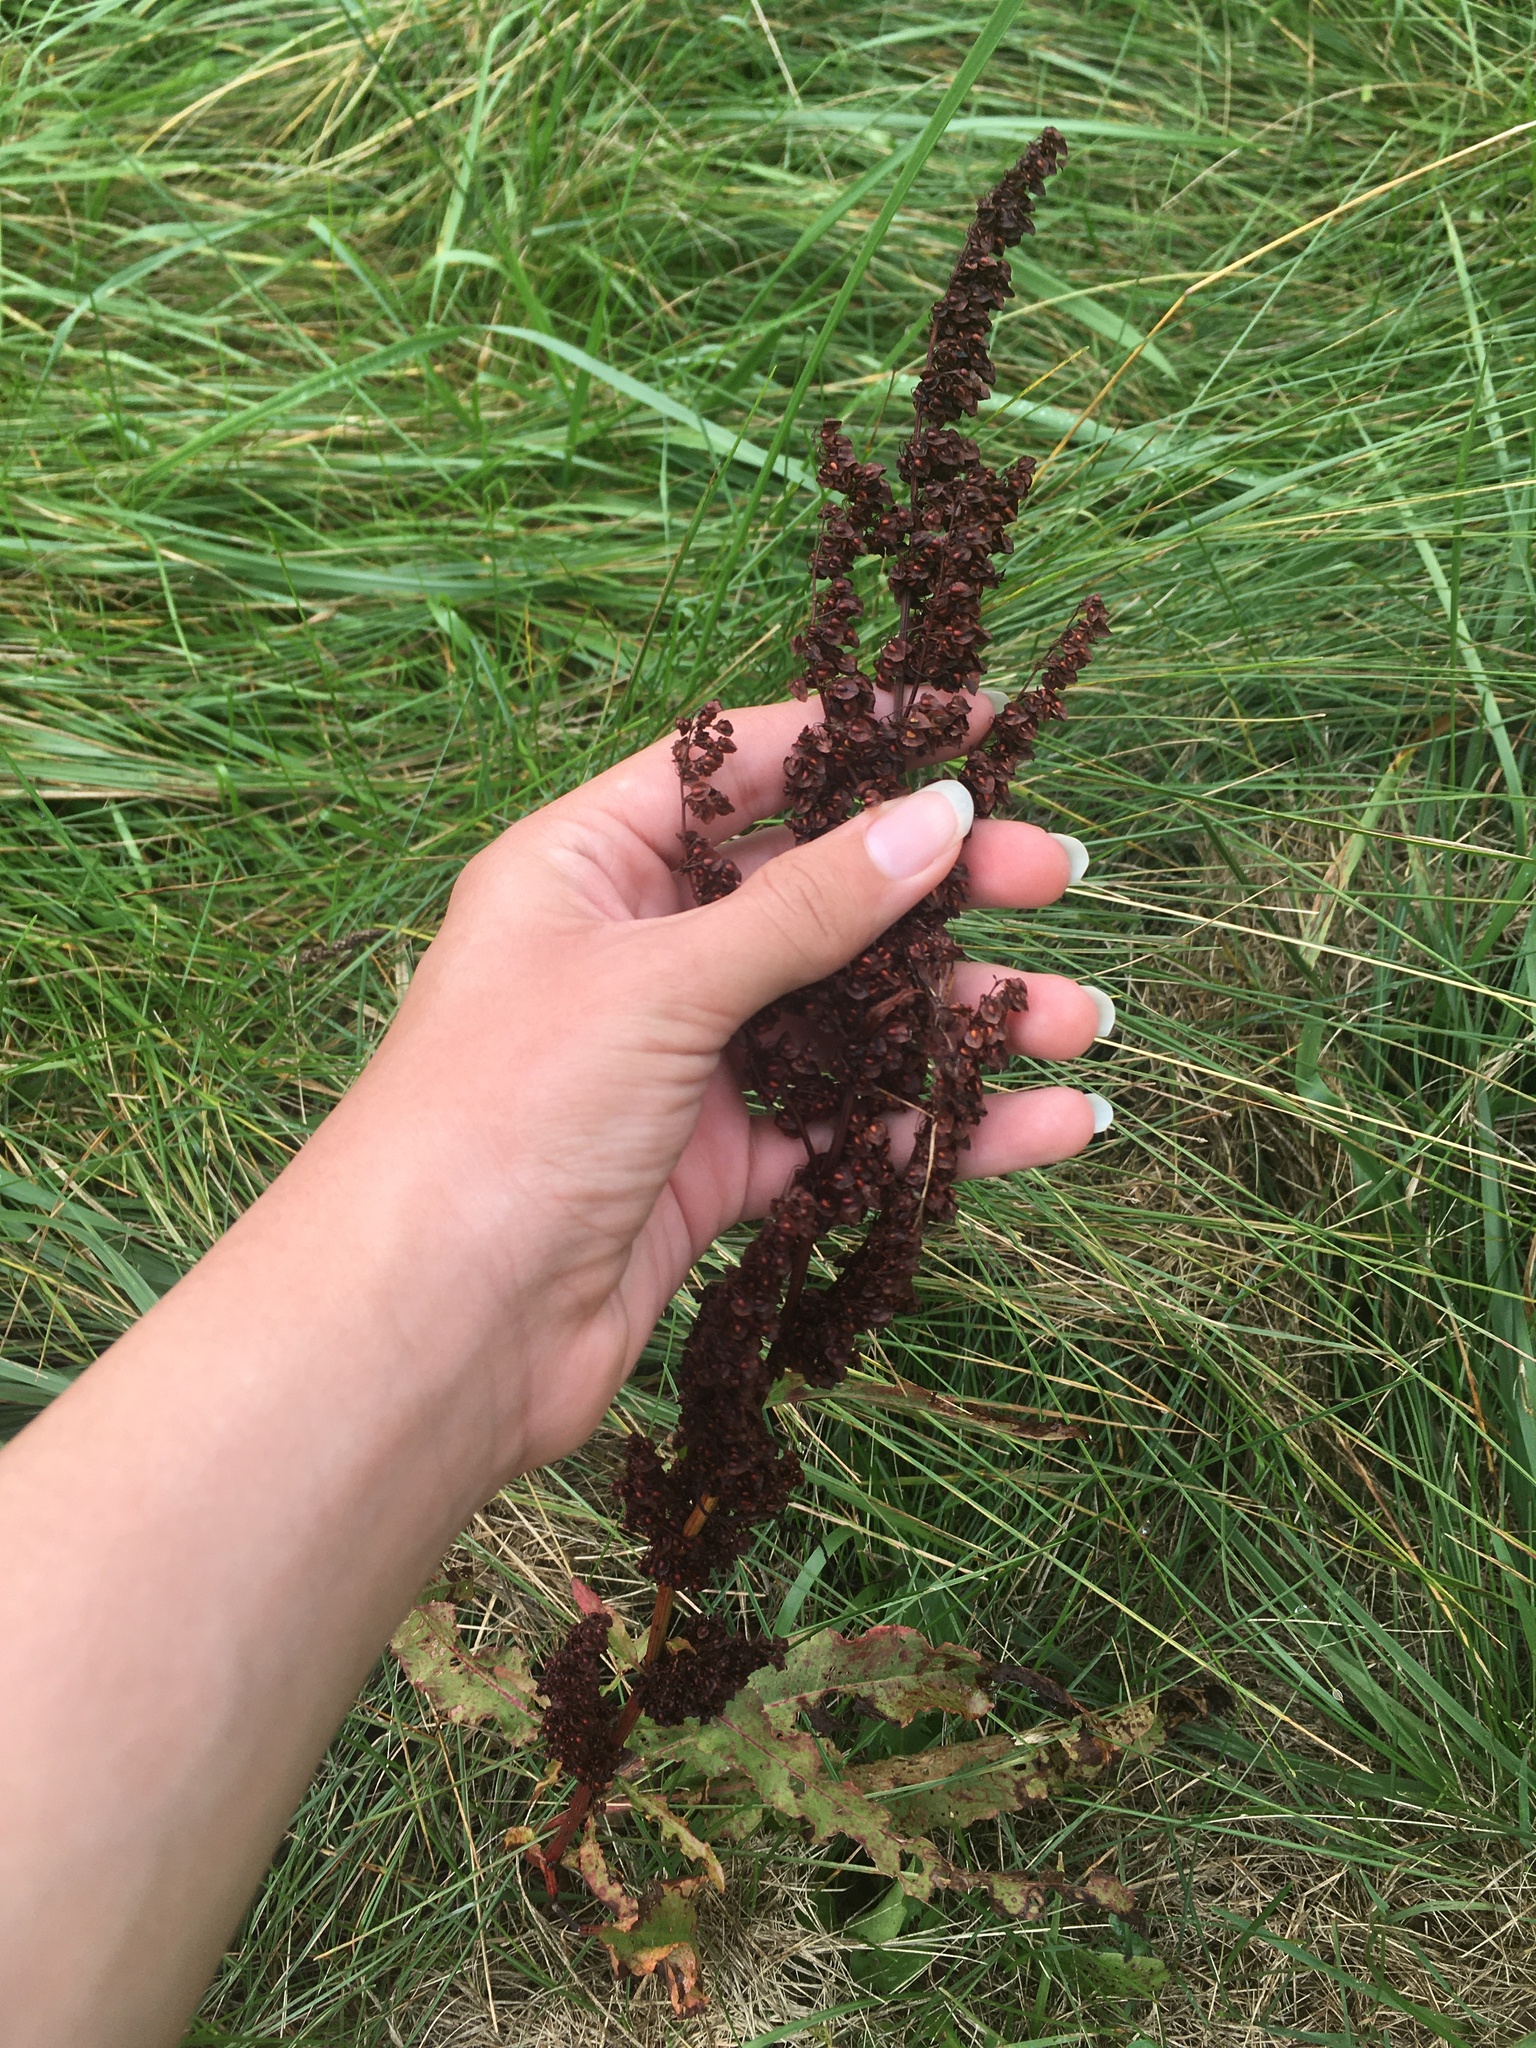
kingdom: Plantae
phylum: Tracheophyta
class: Magnoliopsida
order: Caryophyllales
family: Polygonaceae
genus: Rumex
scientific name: Rumex crispus
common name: Curled dock
